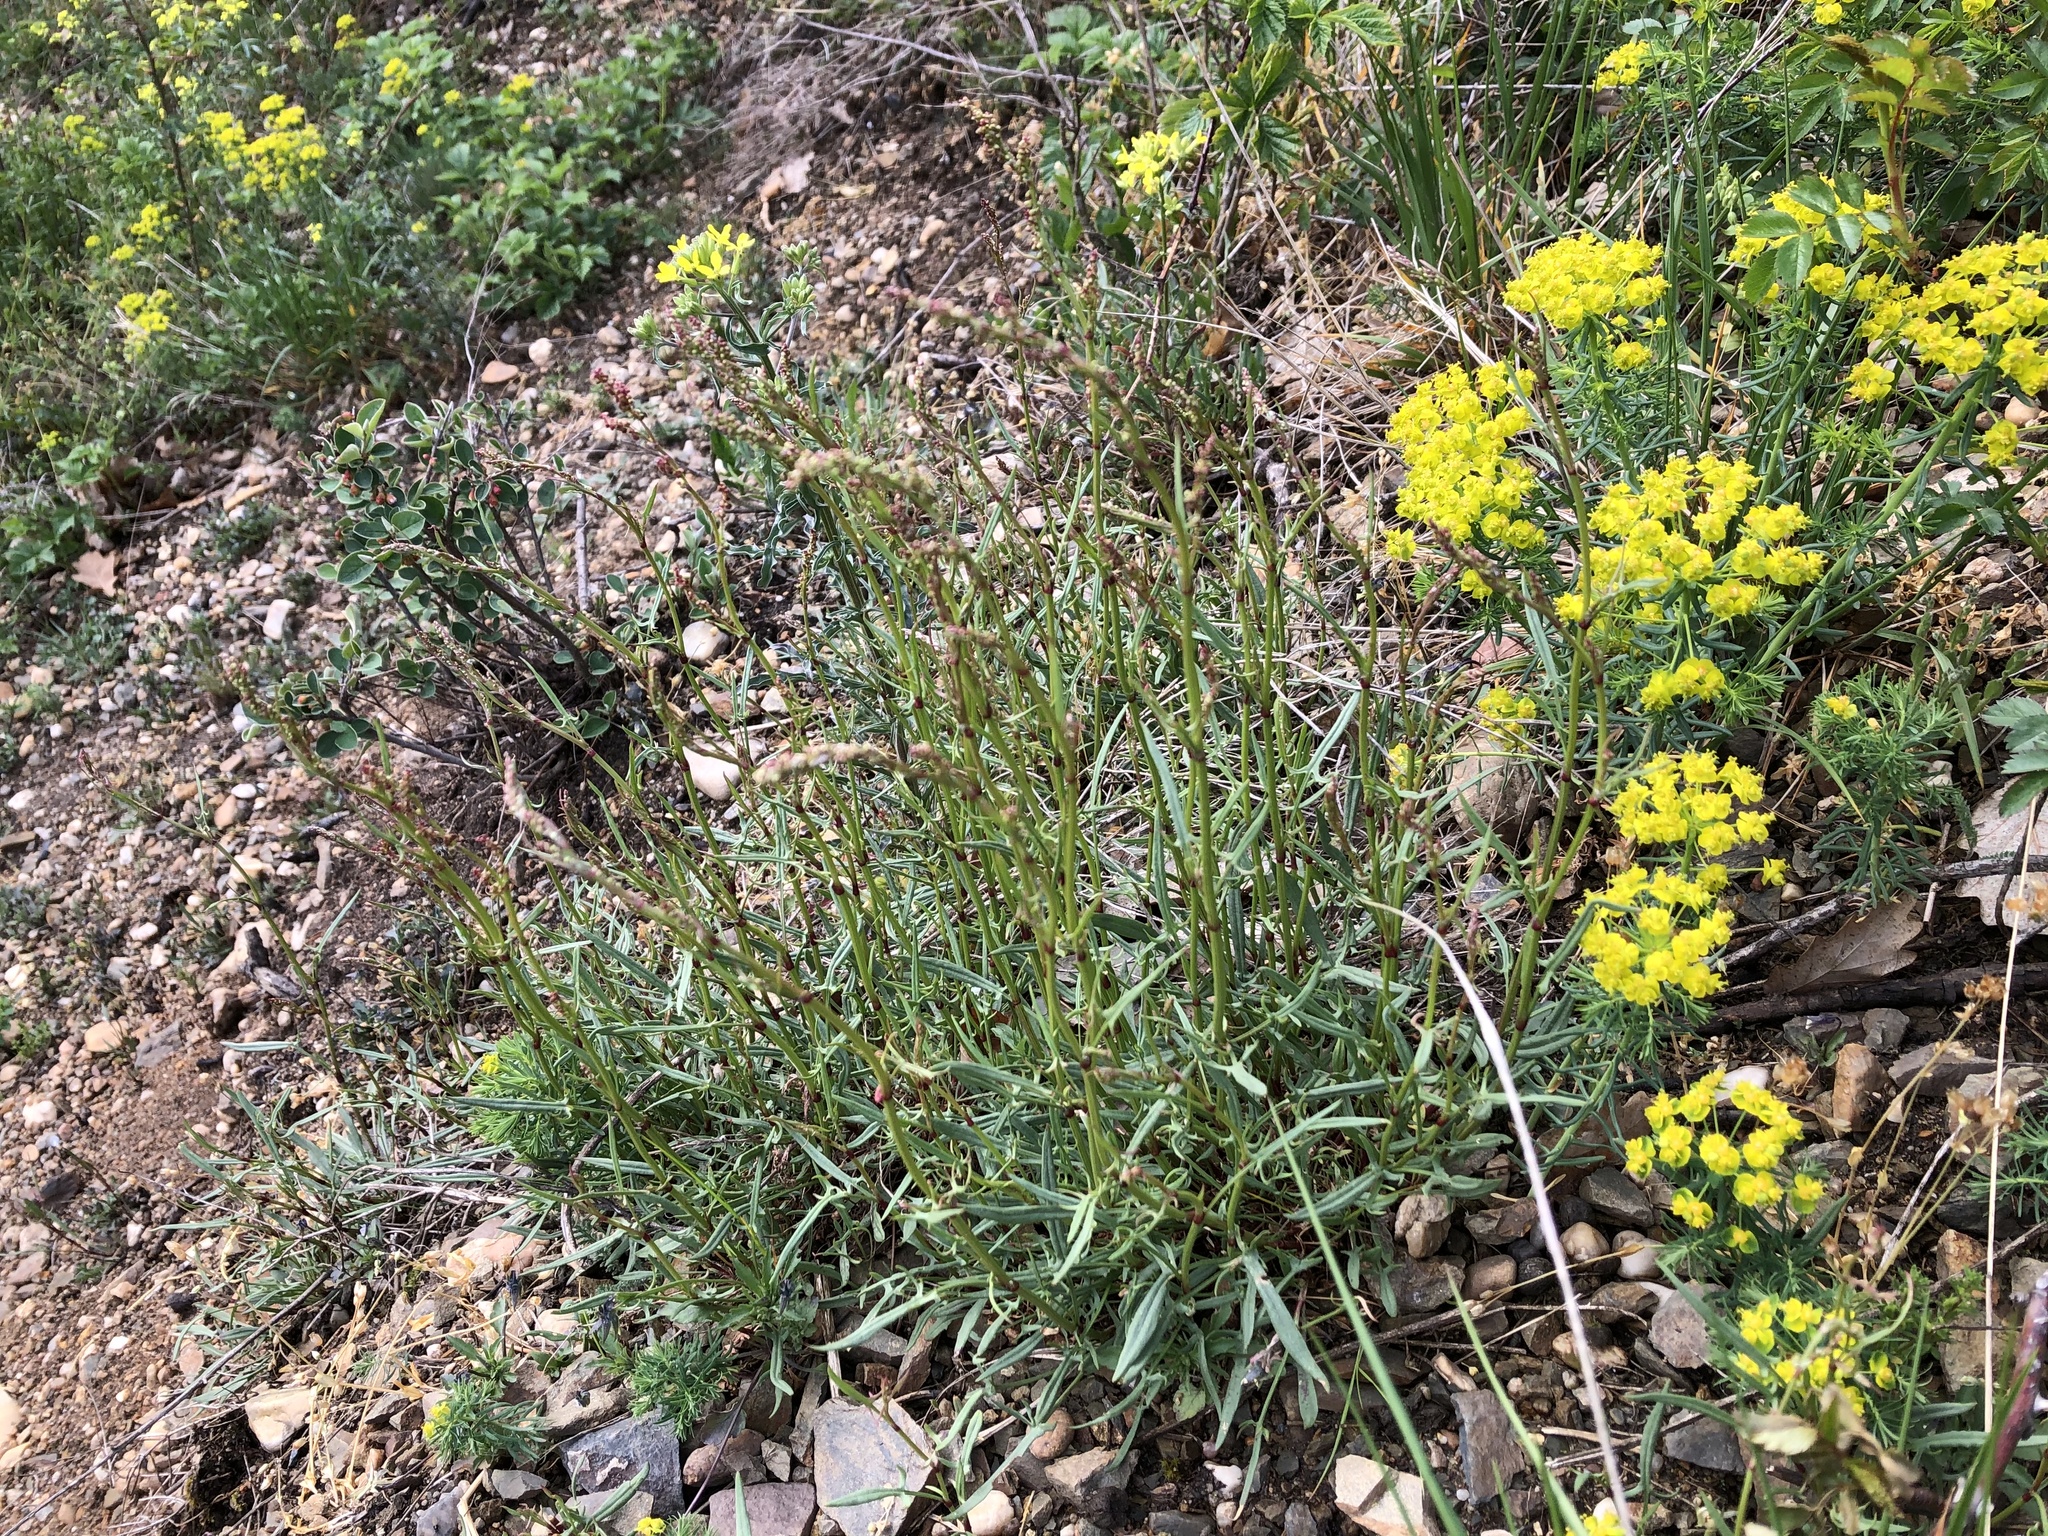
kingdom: Plantae
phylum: Tracheophyta
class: Magnoliopsida
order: Caryophyllales
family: Polygonaceae
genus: Rumex
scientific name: Rumex acetosella
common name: Common sheep sorrel
